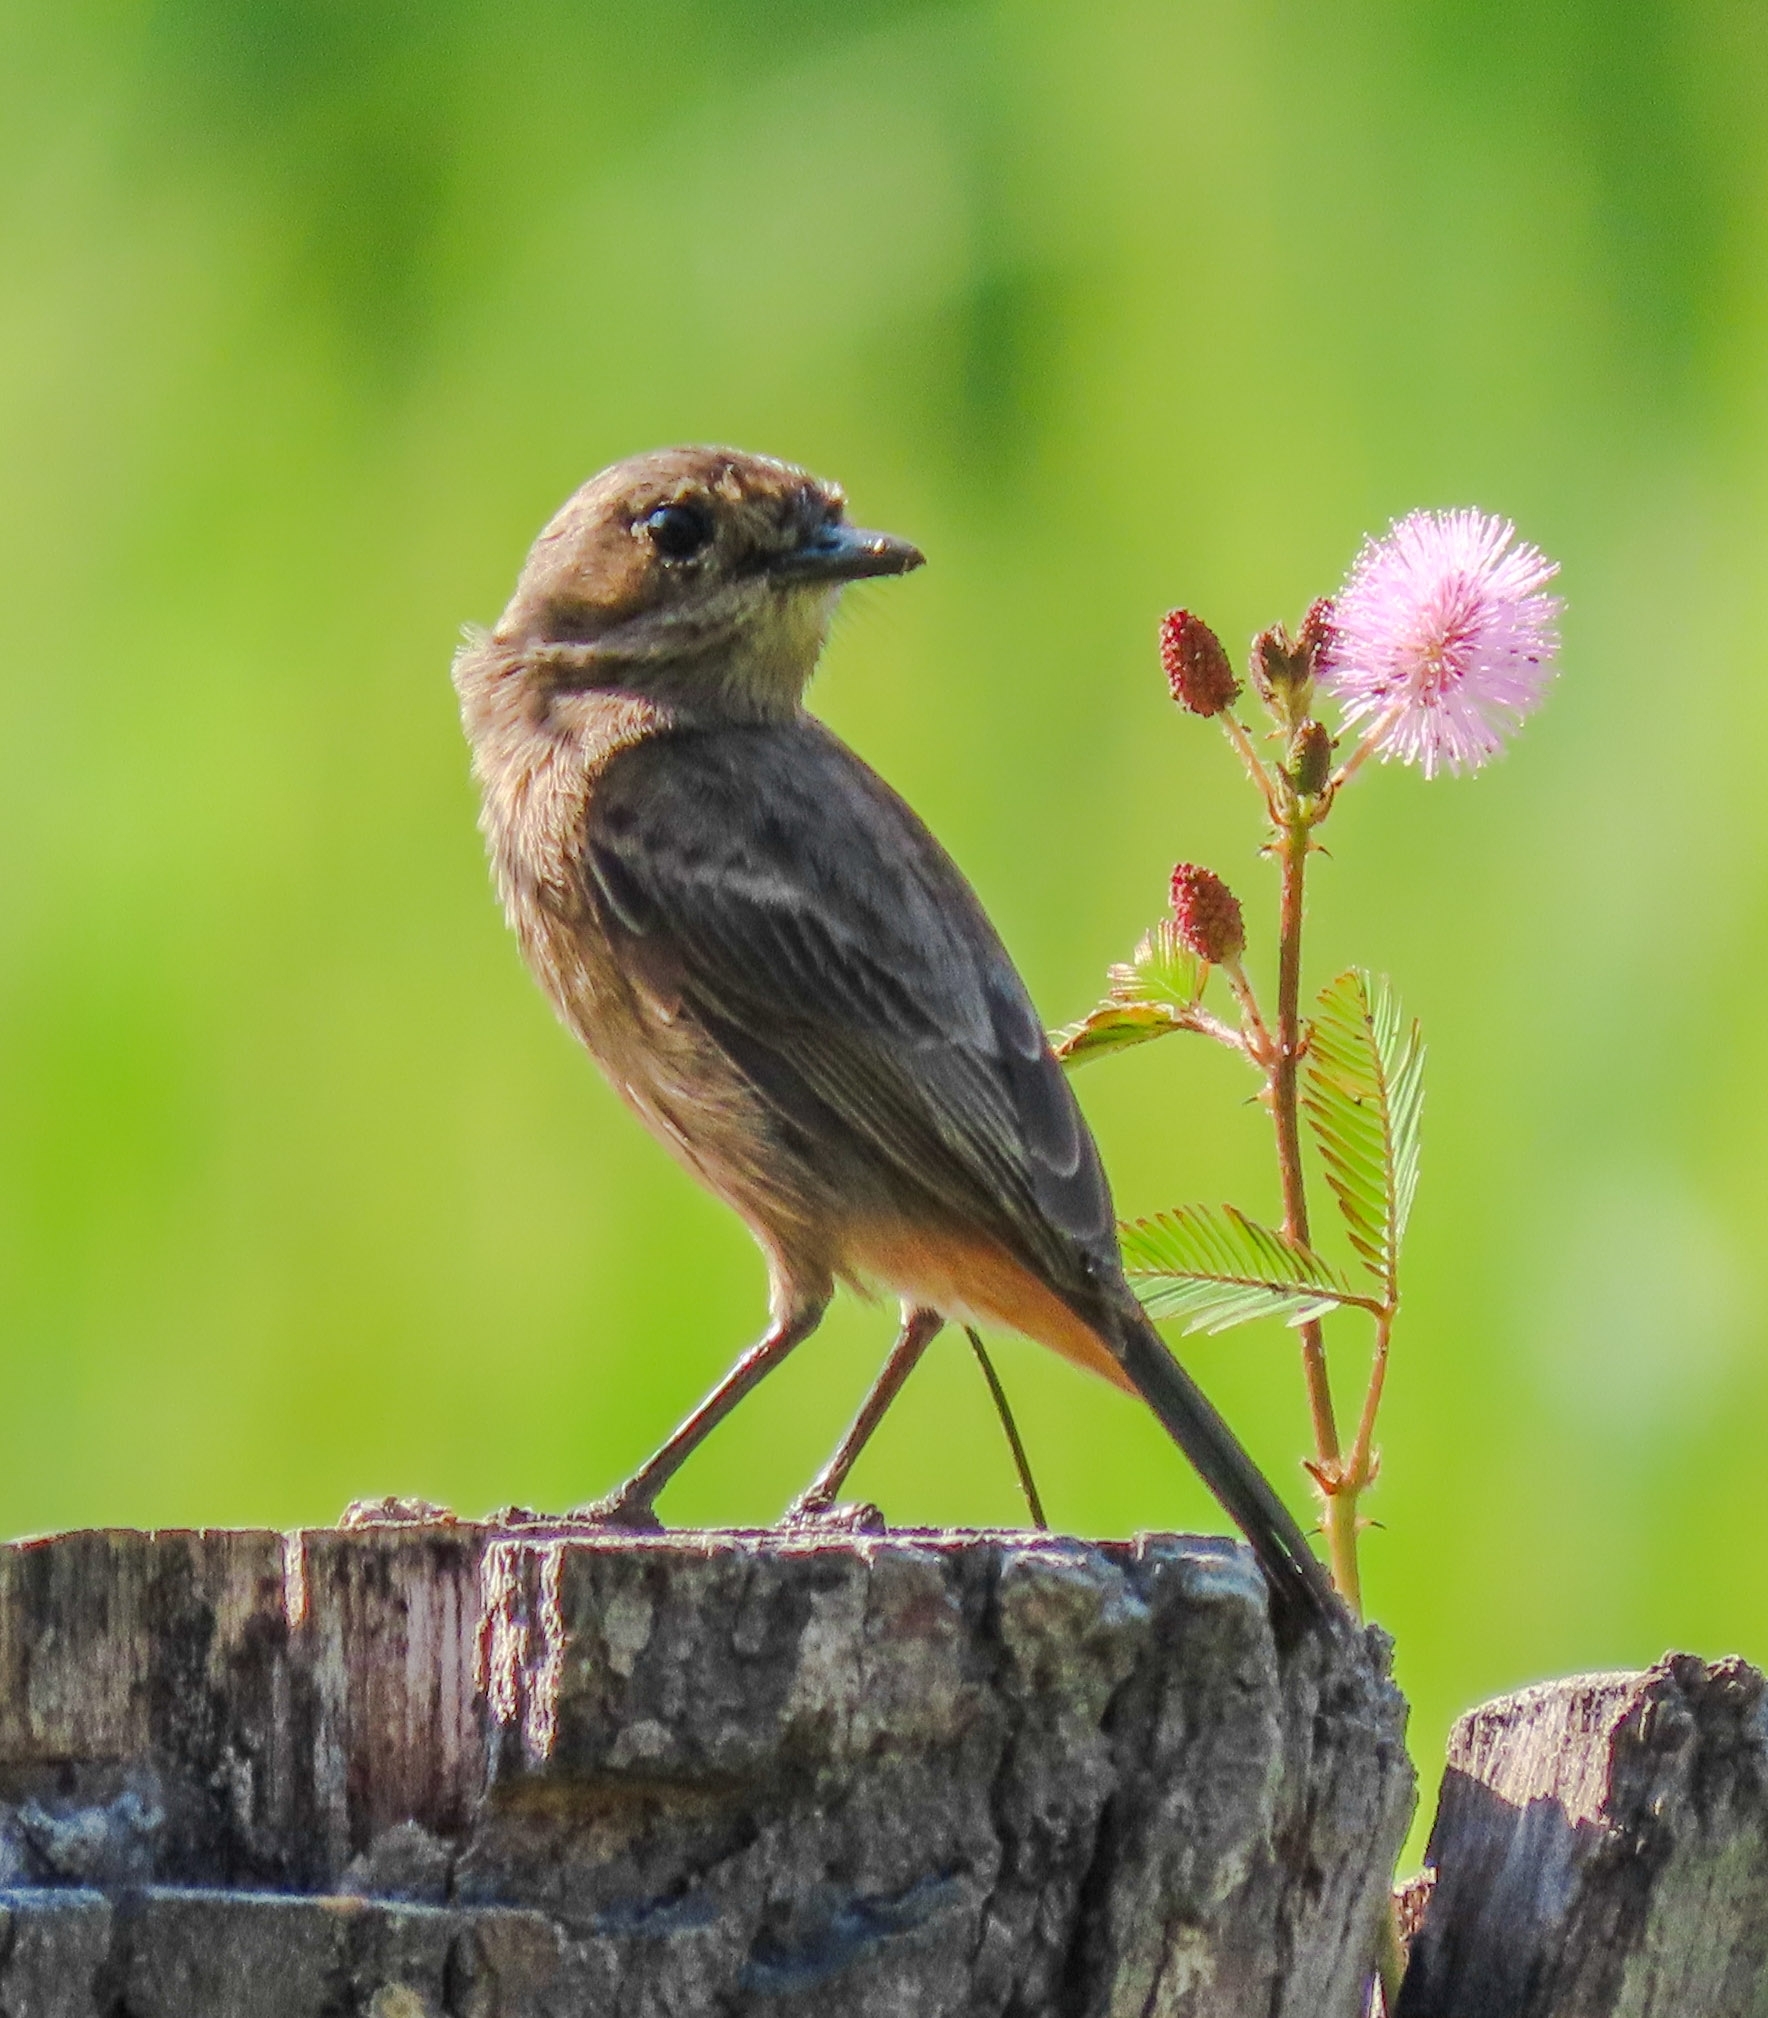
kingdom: Animalia
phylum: Chordata
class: Aves
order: Passeriformes
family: Muscicapidae
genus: Saxicola
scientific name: Saxicola caprata
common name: Pied bush chat
